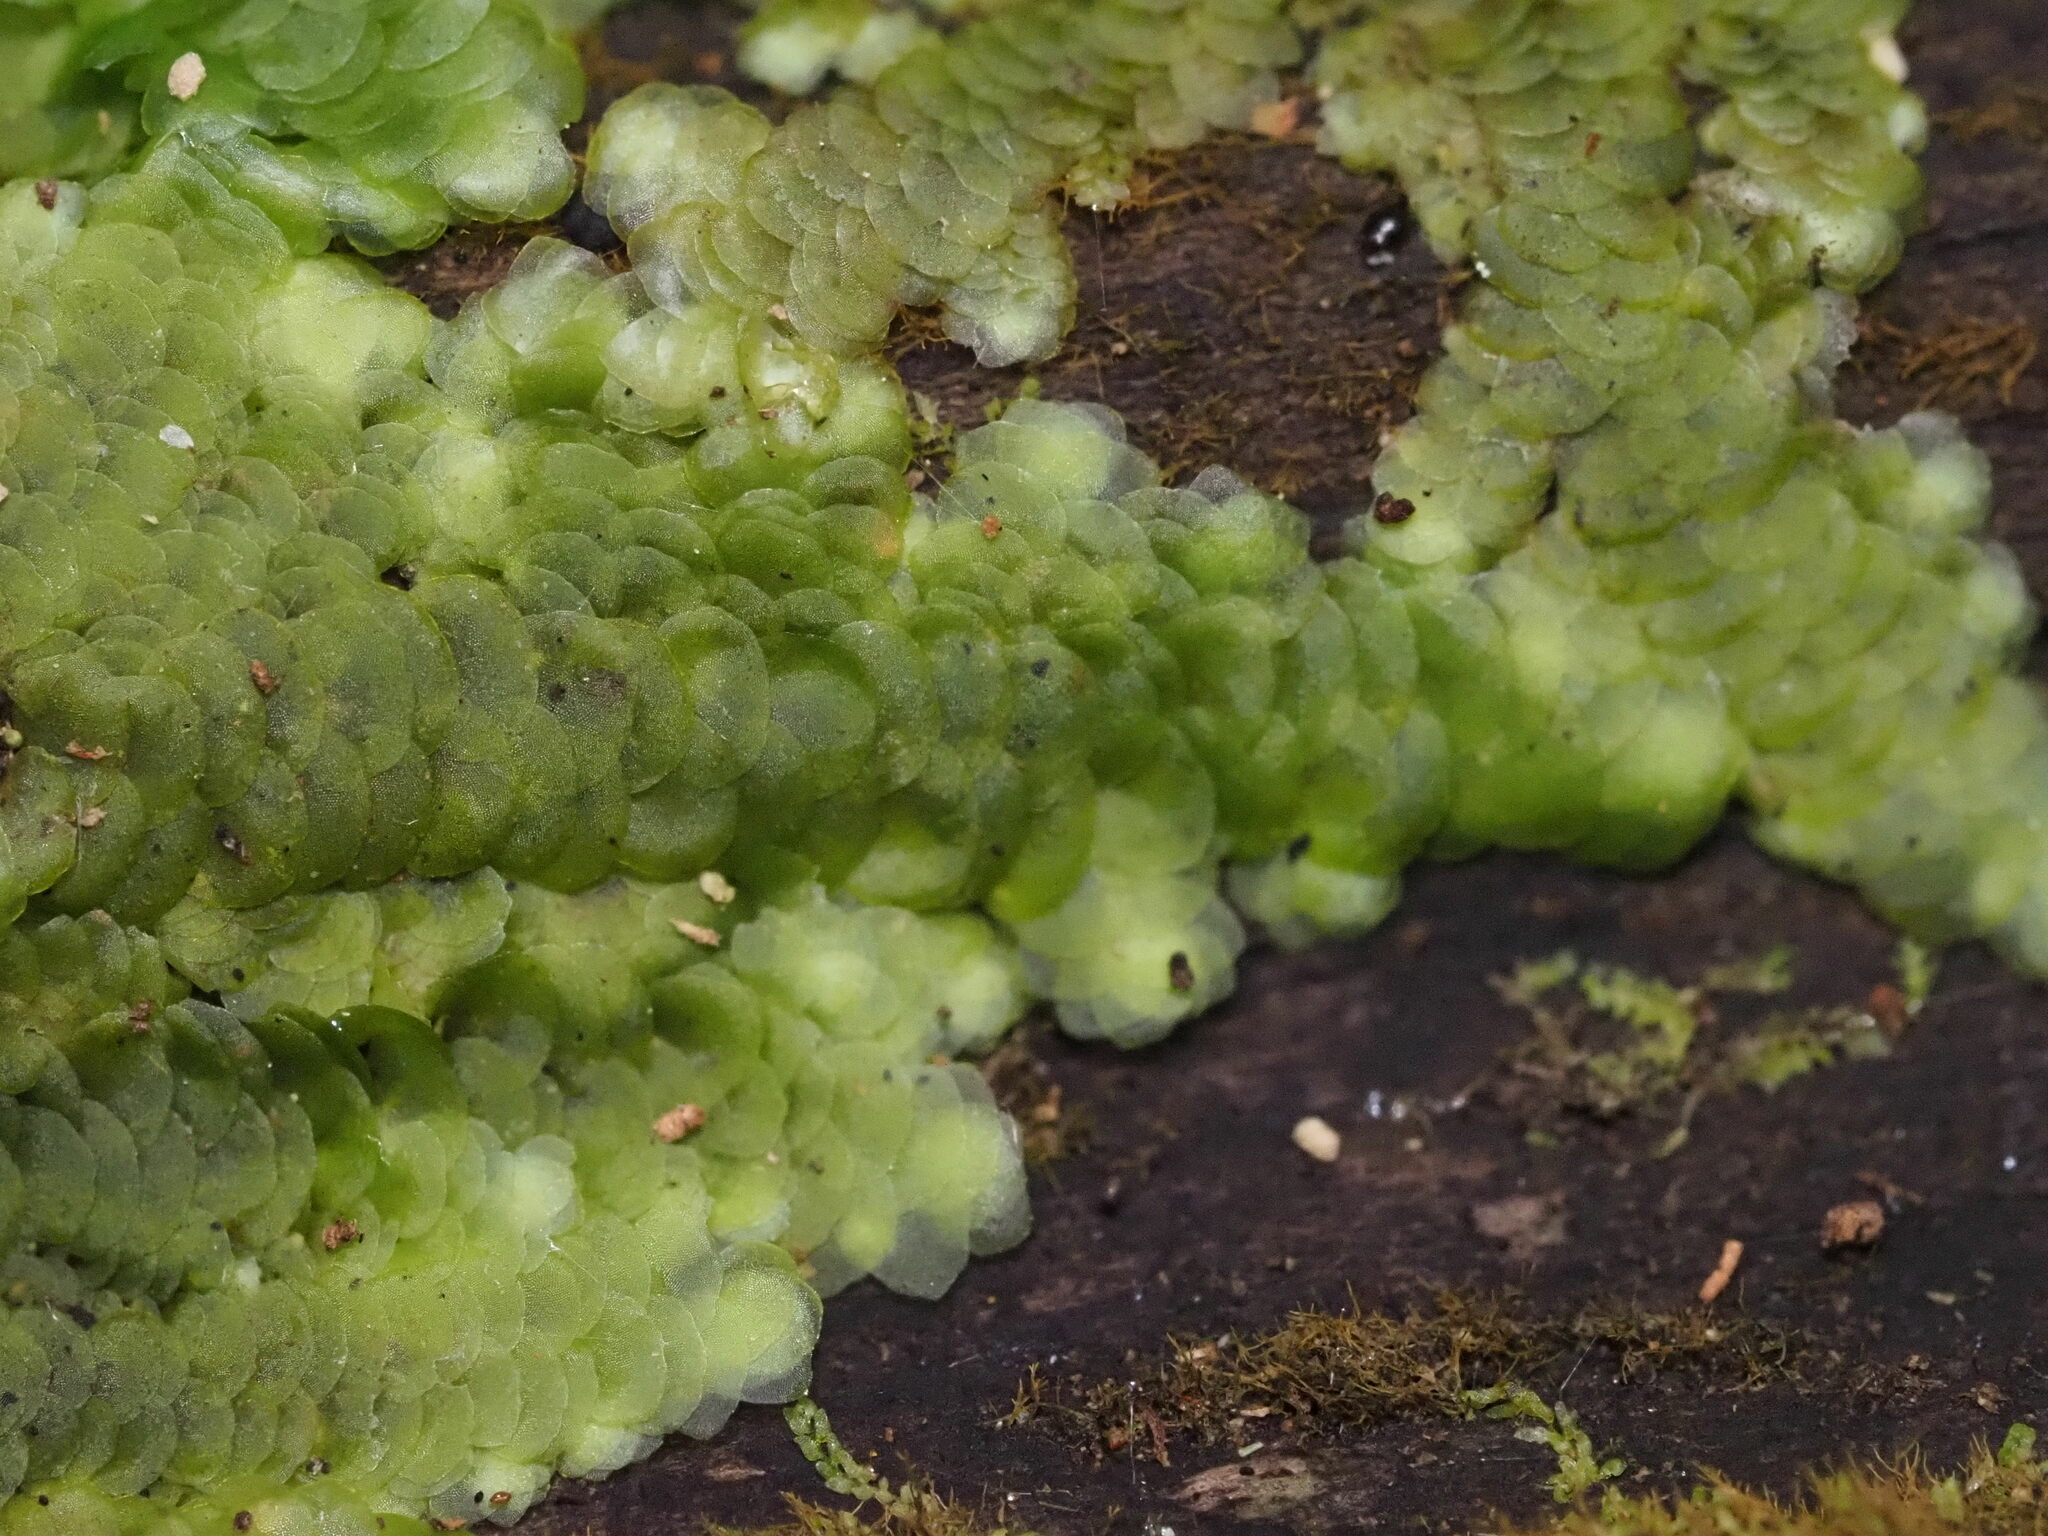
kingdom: Plantae
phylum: Marchantiophyta
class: Jungermanniopsida
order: Porellales
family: Frullaniaceae
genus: Frullania
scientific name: Frullania hypoleuca
